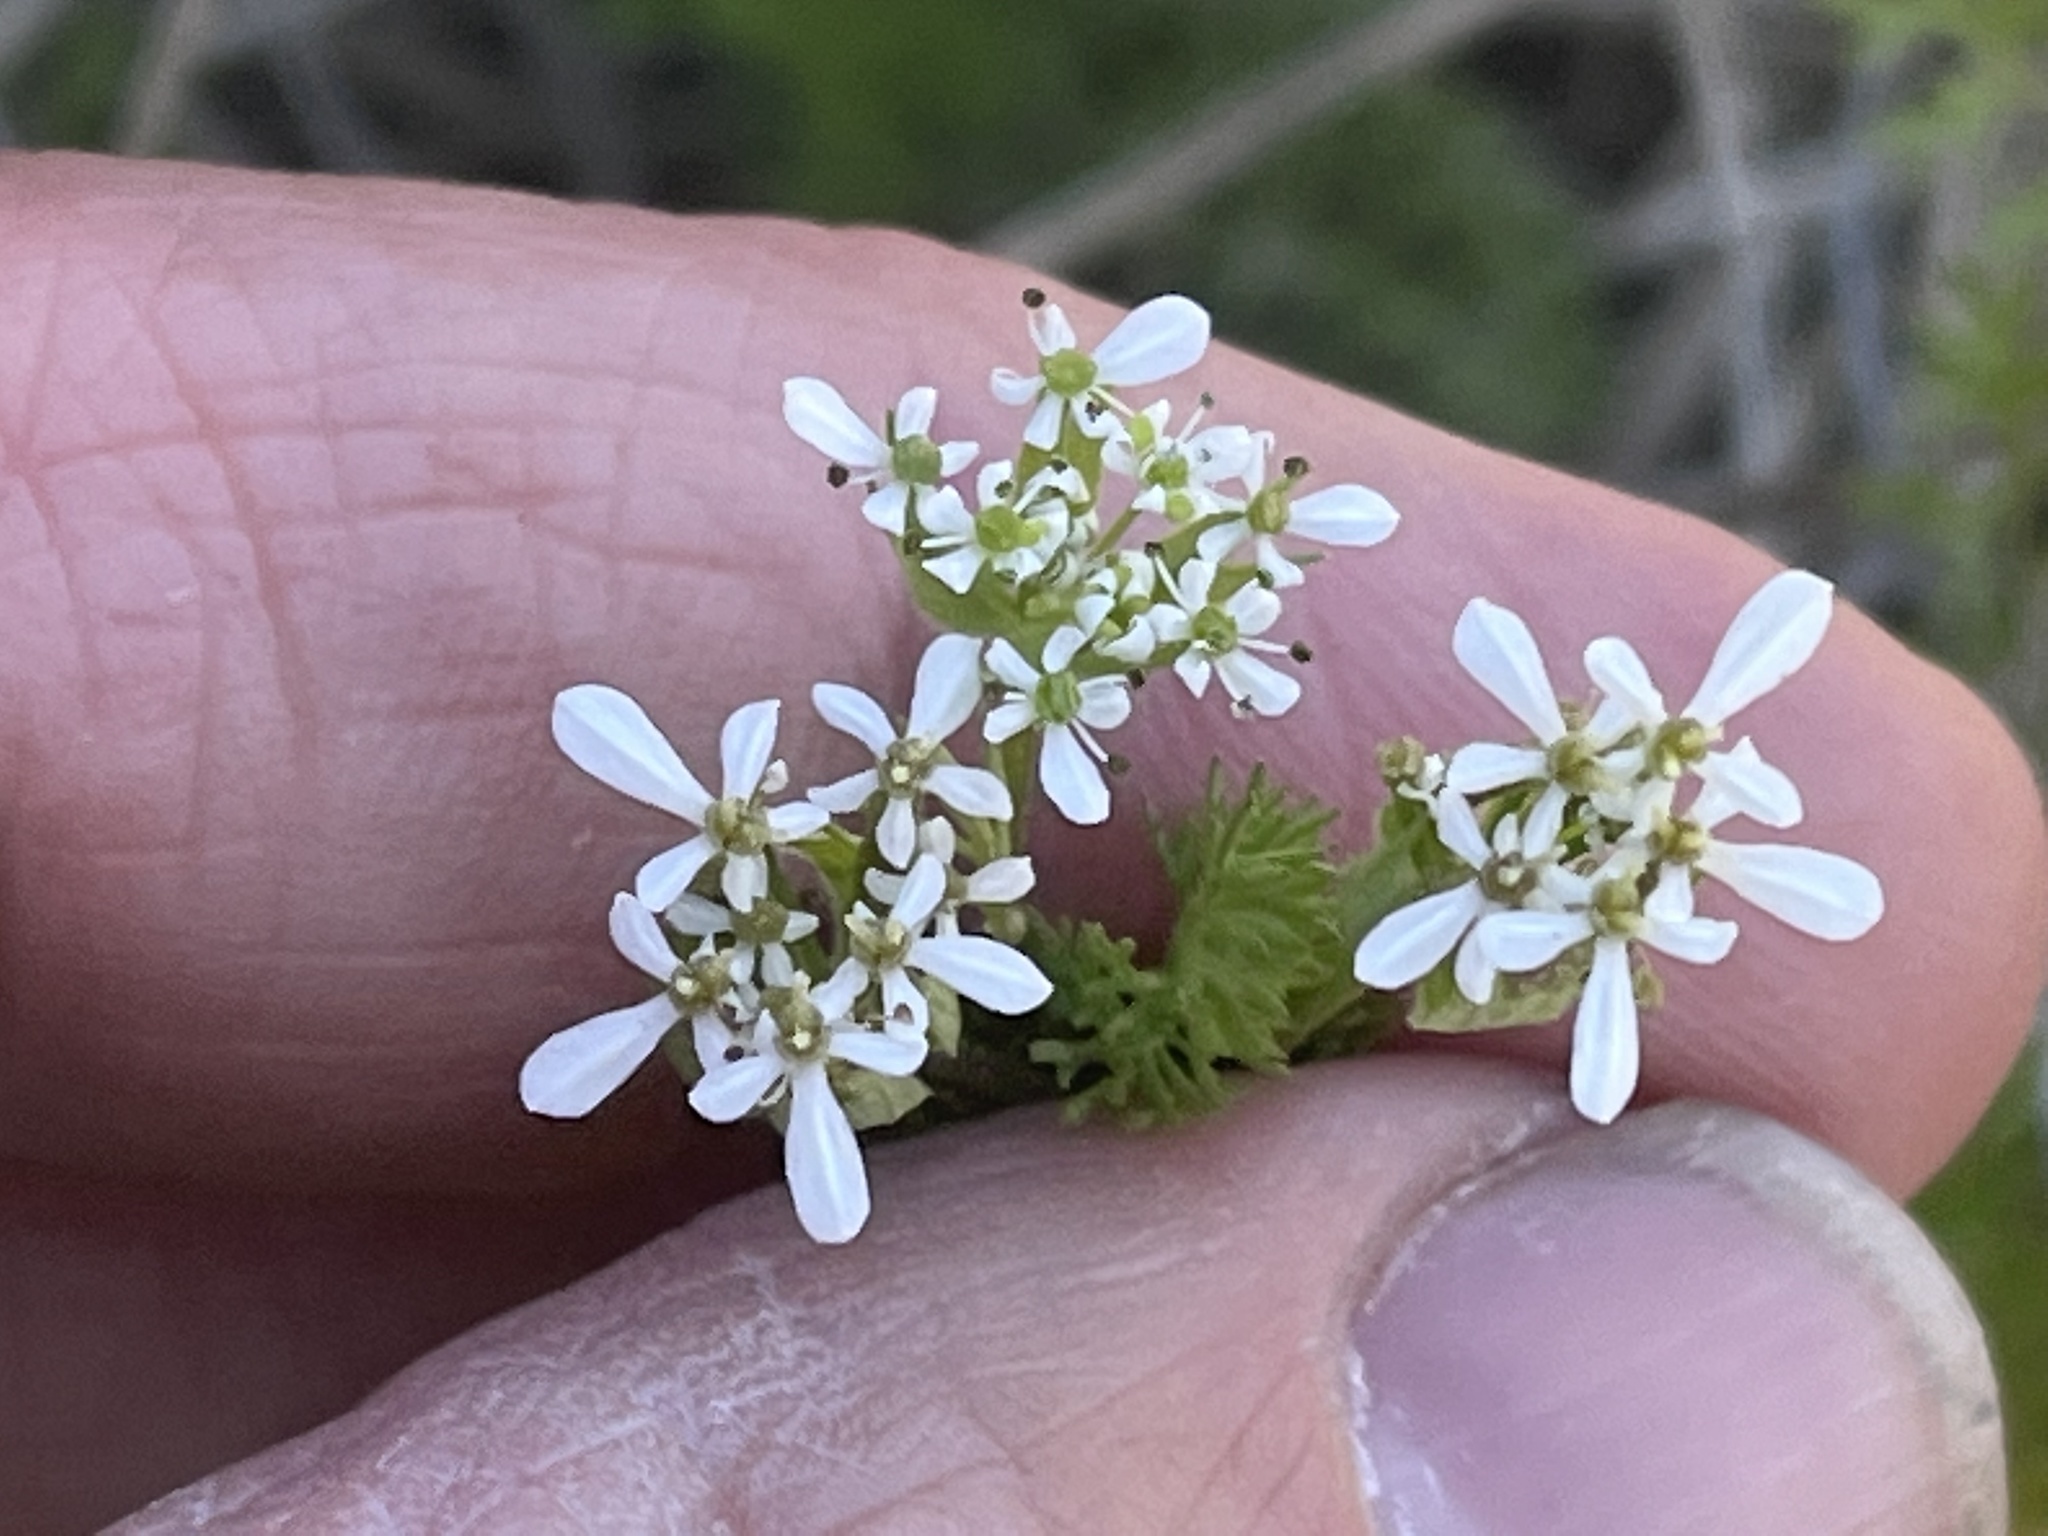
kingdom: Plantae
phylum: Tracheophyta
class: Magnoliopsida
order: Apiales
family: Apiaceae
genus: Scandix
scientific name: Scandix pecten-veneris
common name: Shepherd's-needle
